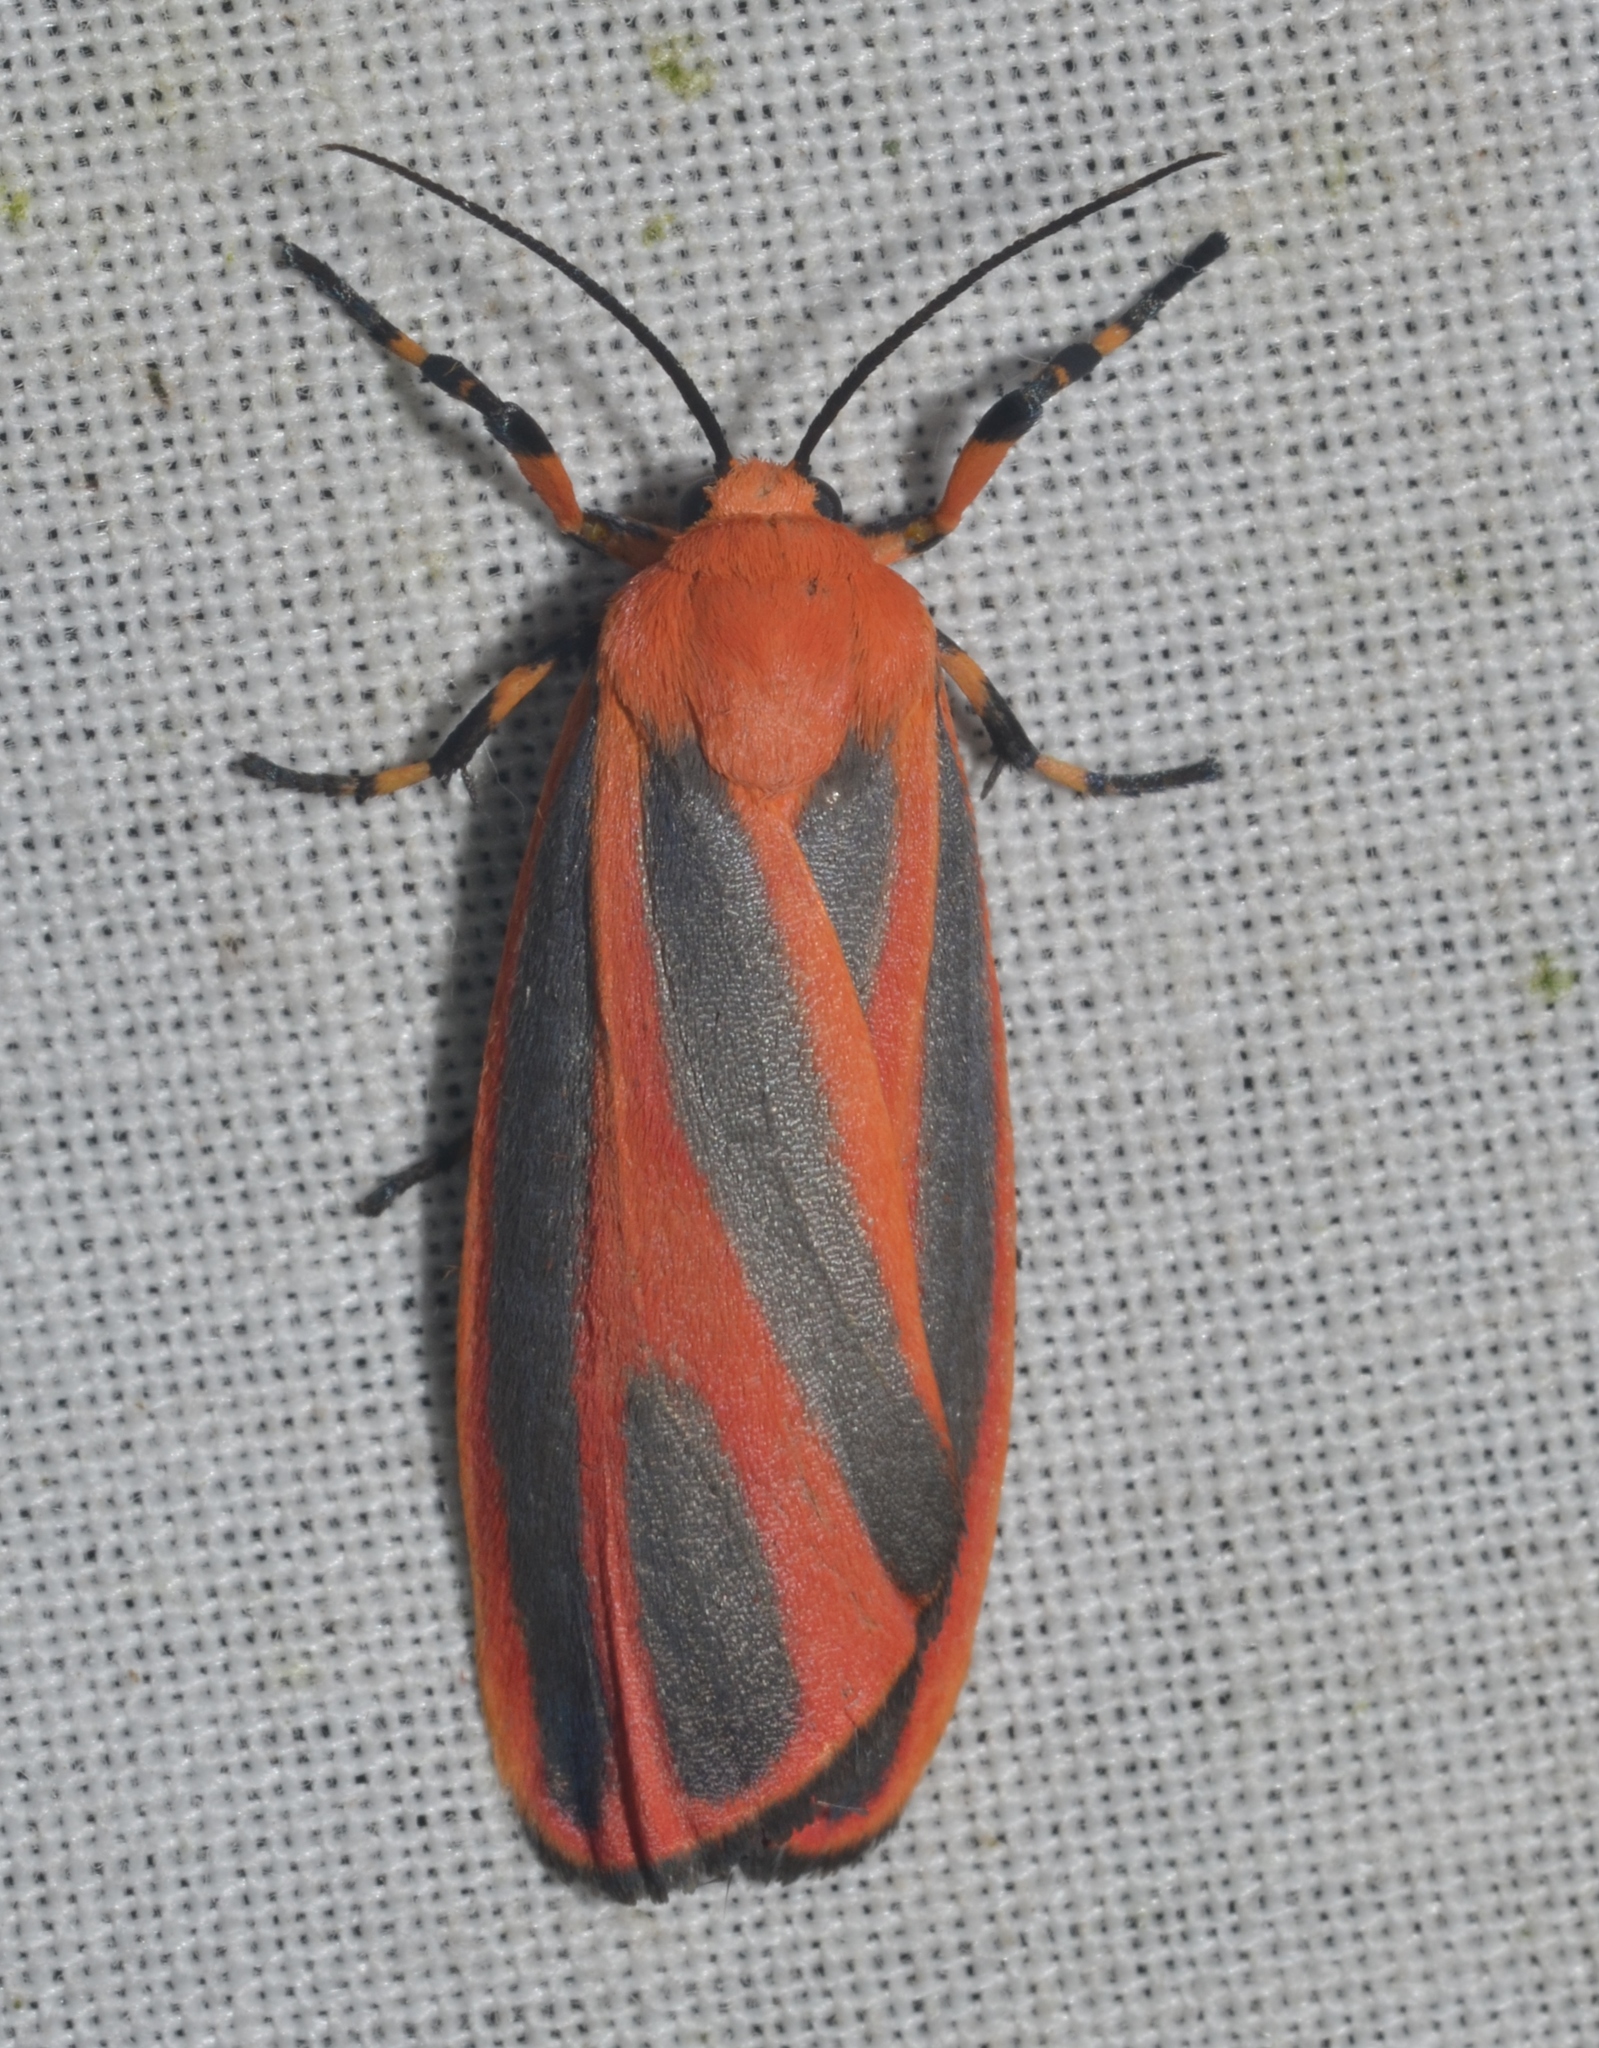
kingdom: Animalia
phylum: Arthropoda
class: Insecta
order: Lepidoptera
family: Erebidae
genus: Hypoprepia
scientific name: Hypoprepia miniata
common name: Scarlet-winged lichen moth
